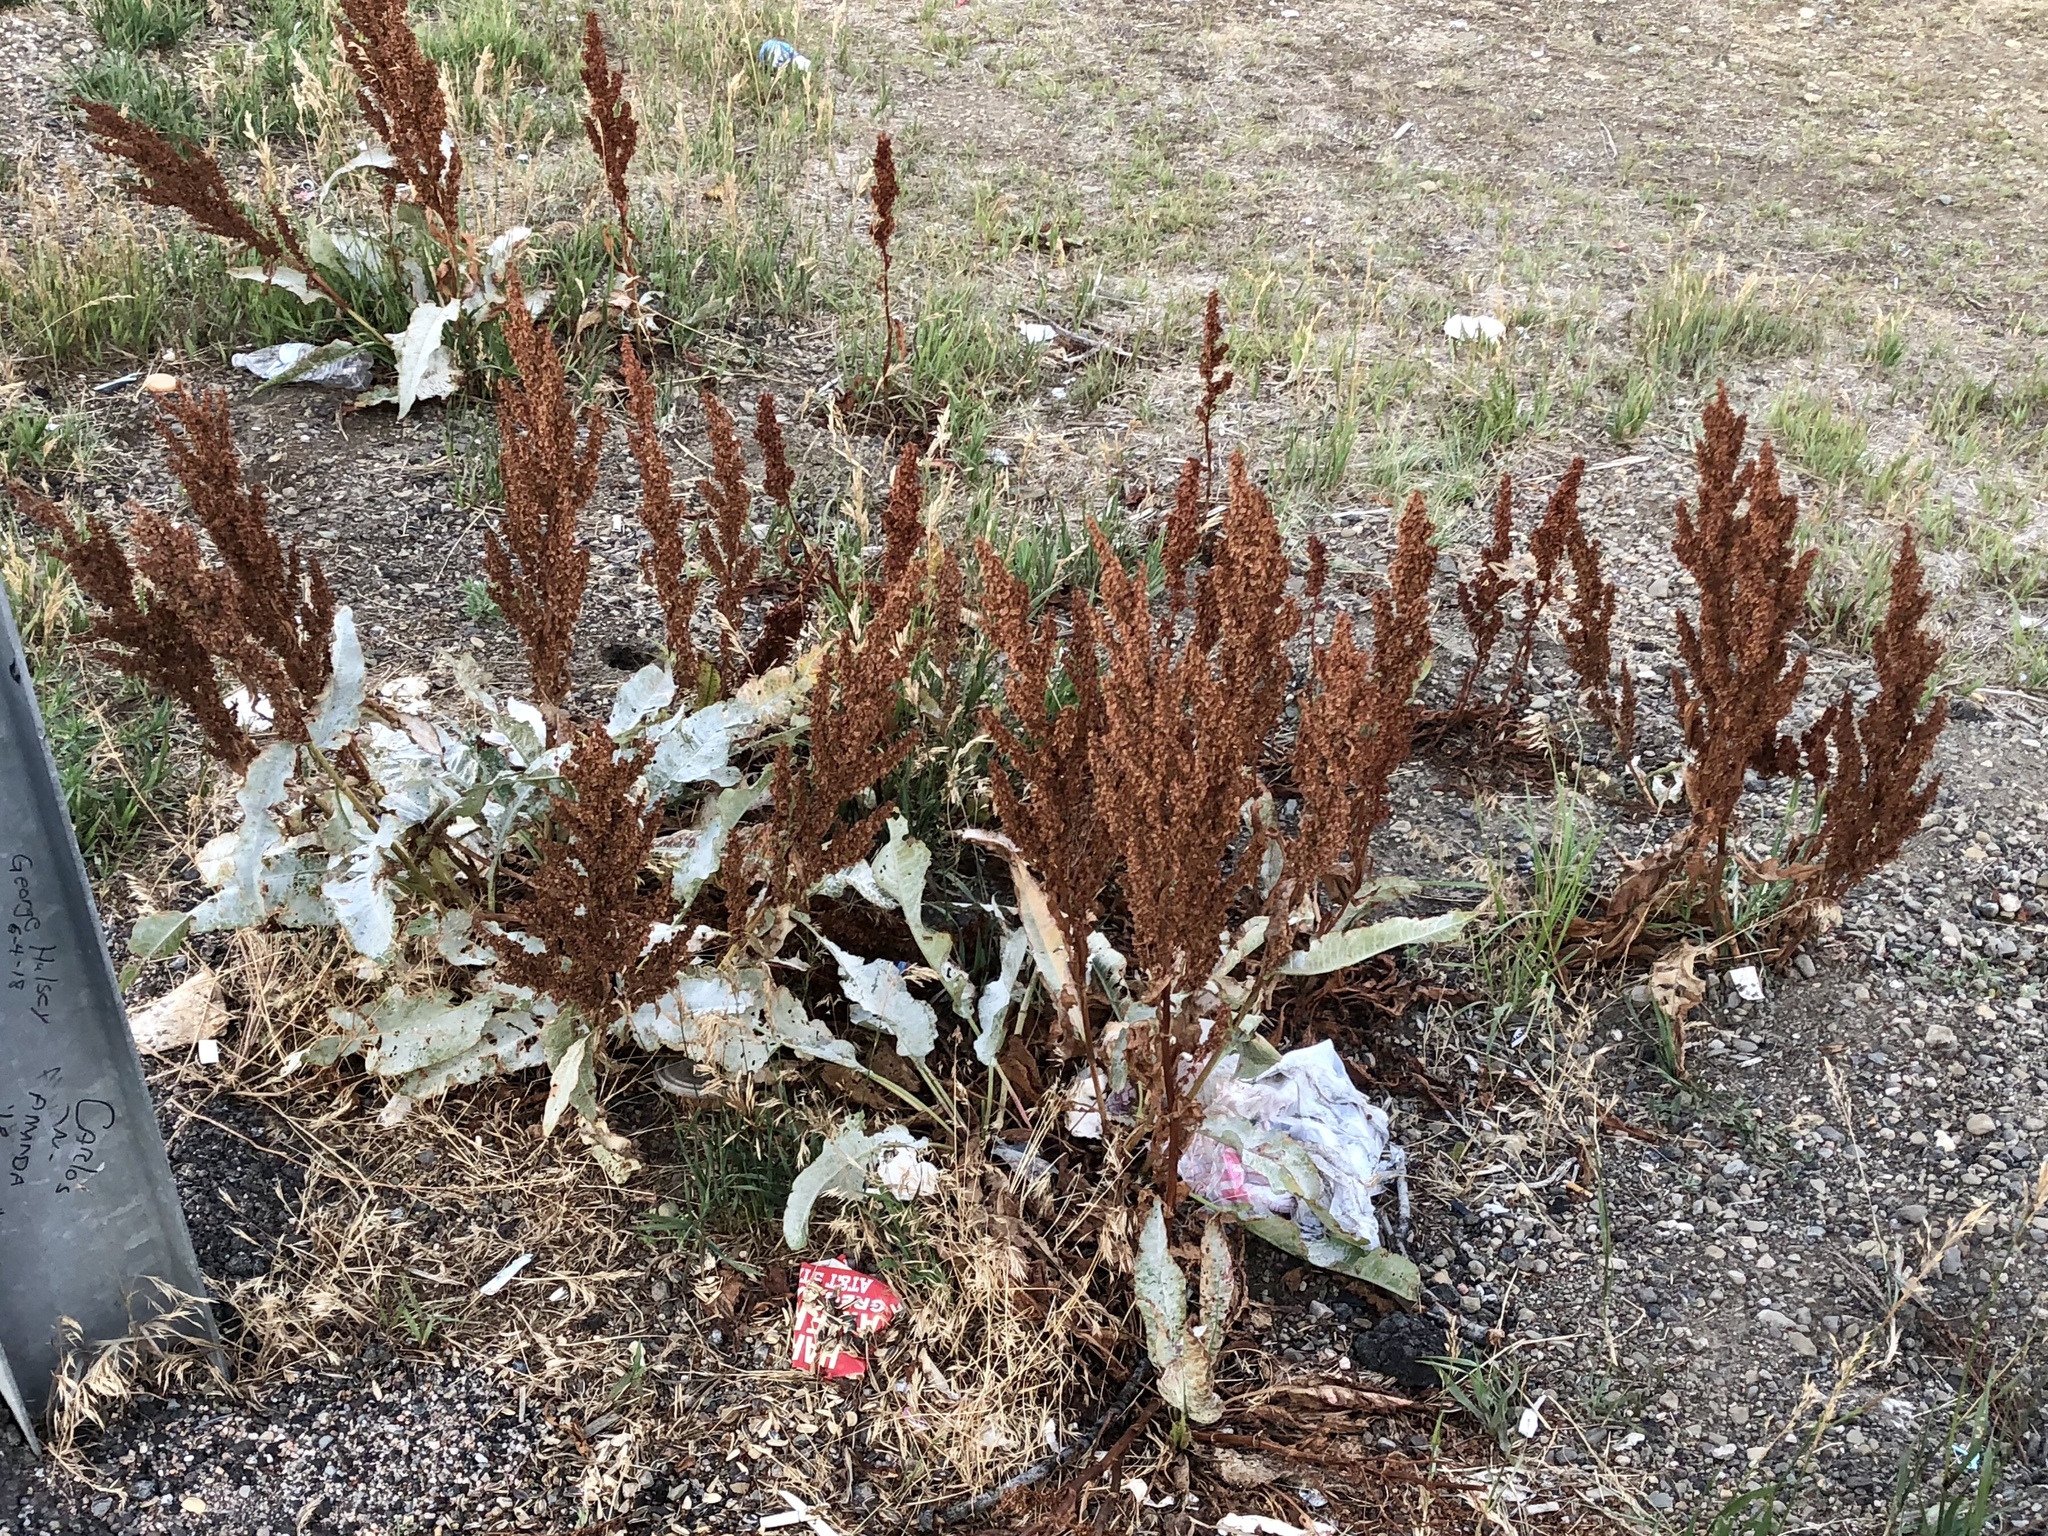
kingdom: Plantae
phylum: Tracheophyta
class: Magnoliopsida
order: Caryophyllales
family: Polygonaceae
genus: Rumex
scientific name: Rumex crispus
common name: Curled dock
